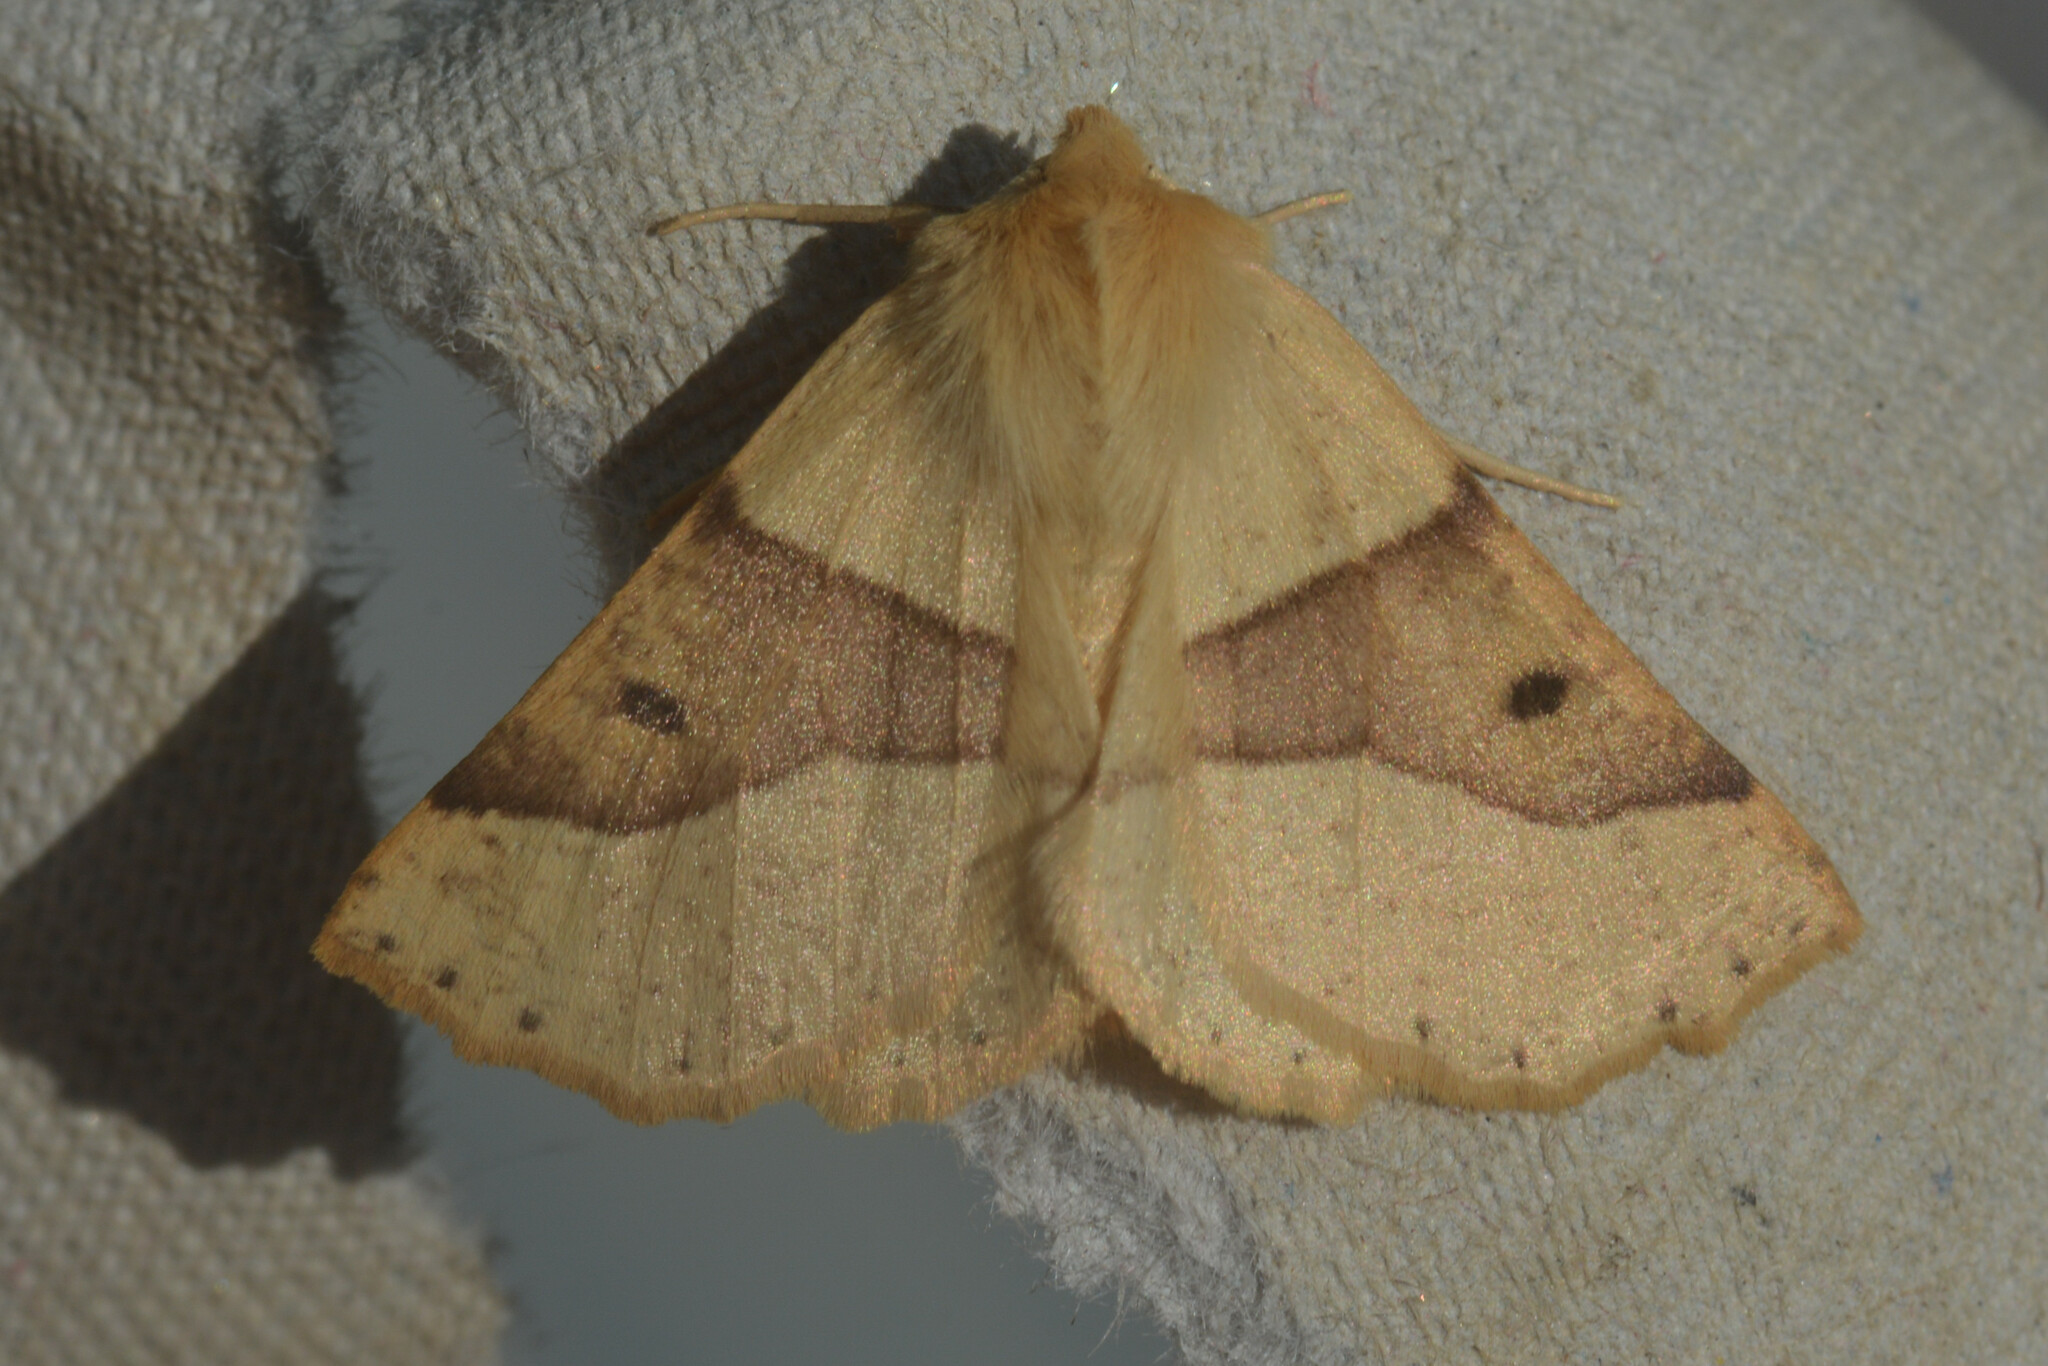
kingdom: Animalia
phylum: Arthropoda
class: Insecta
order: Lepidoptera
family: Geometridae
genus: Crocallis
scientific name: Crocallis elinguaria
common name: Scalloped oak
